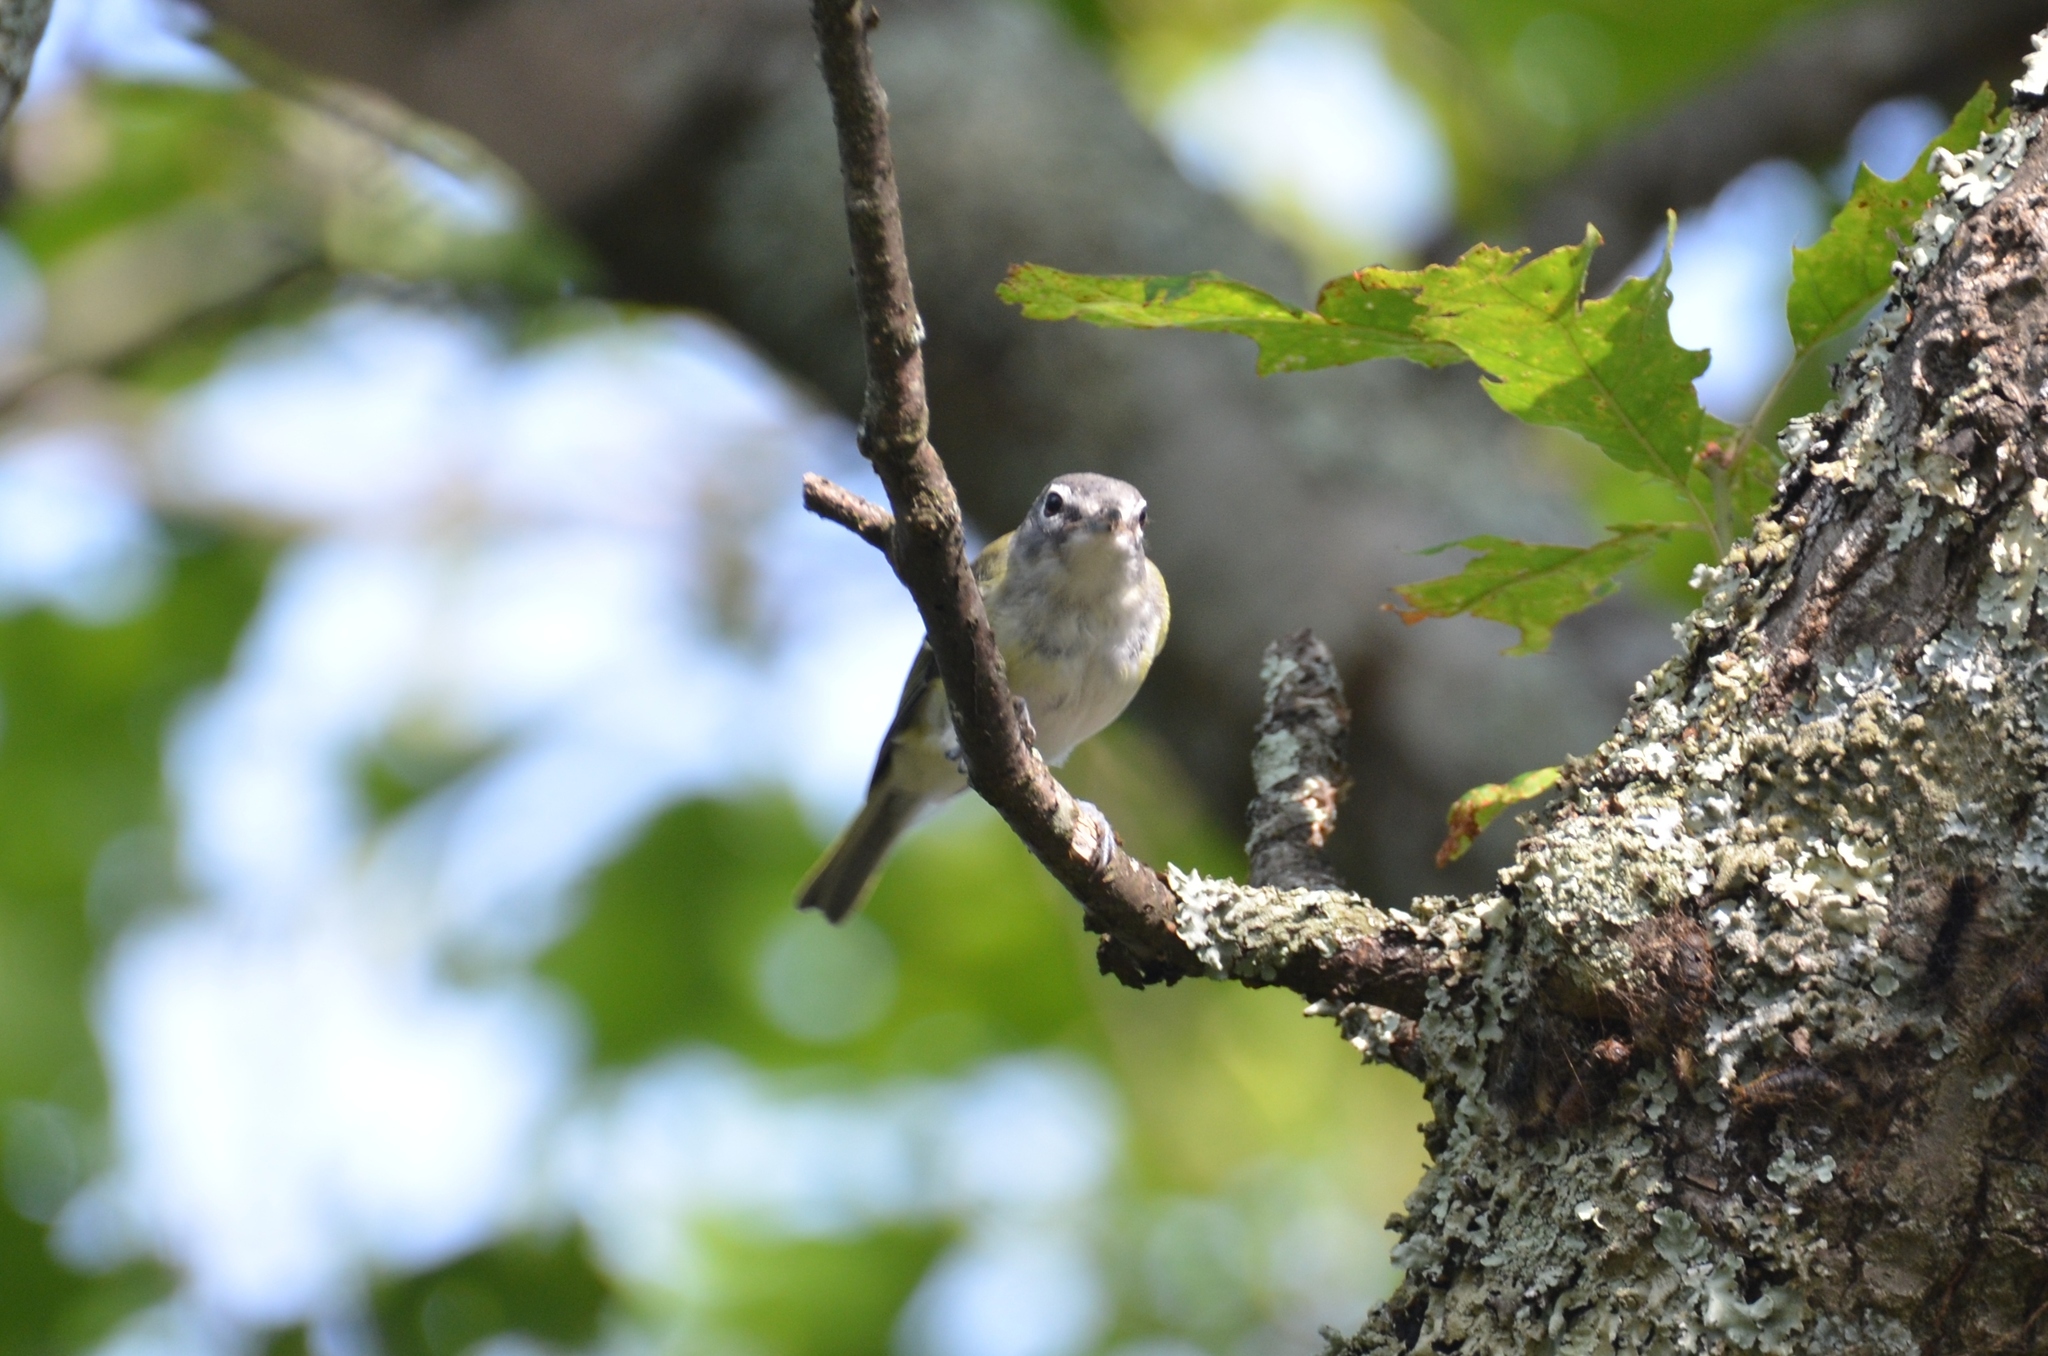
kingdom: Animalia
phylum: Chordata
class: Aves
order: Passeriformes
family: Vireonidae
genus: Vireo
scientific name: Vireo solitarius
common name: Blue-headed vireo
